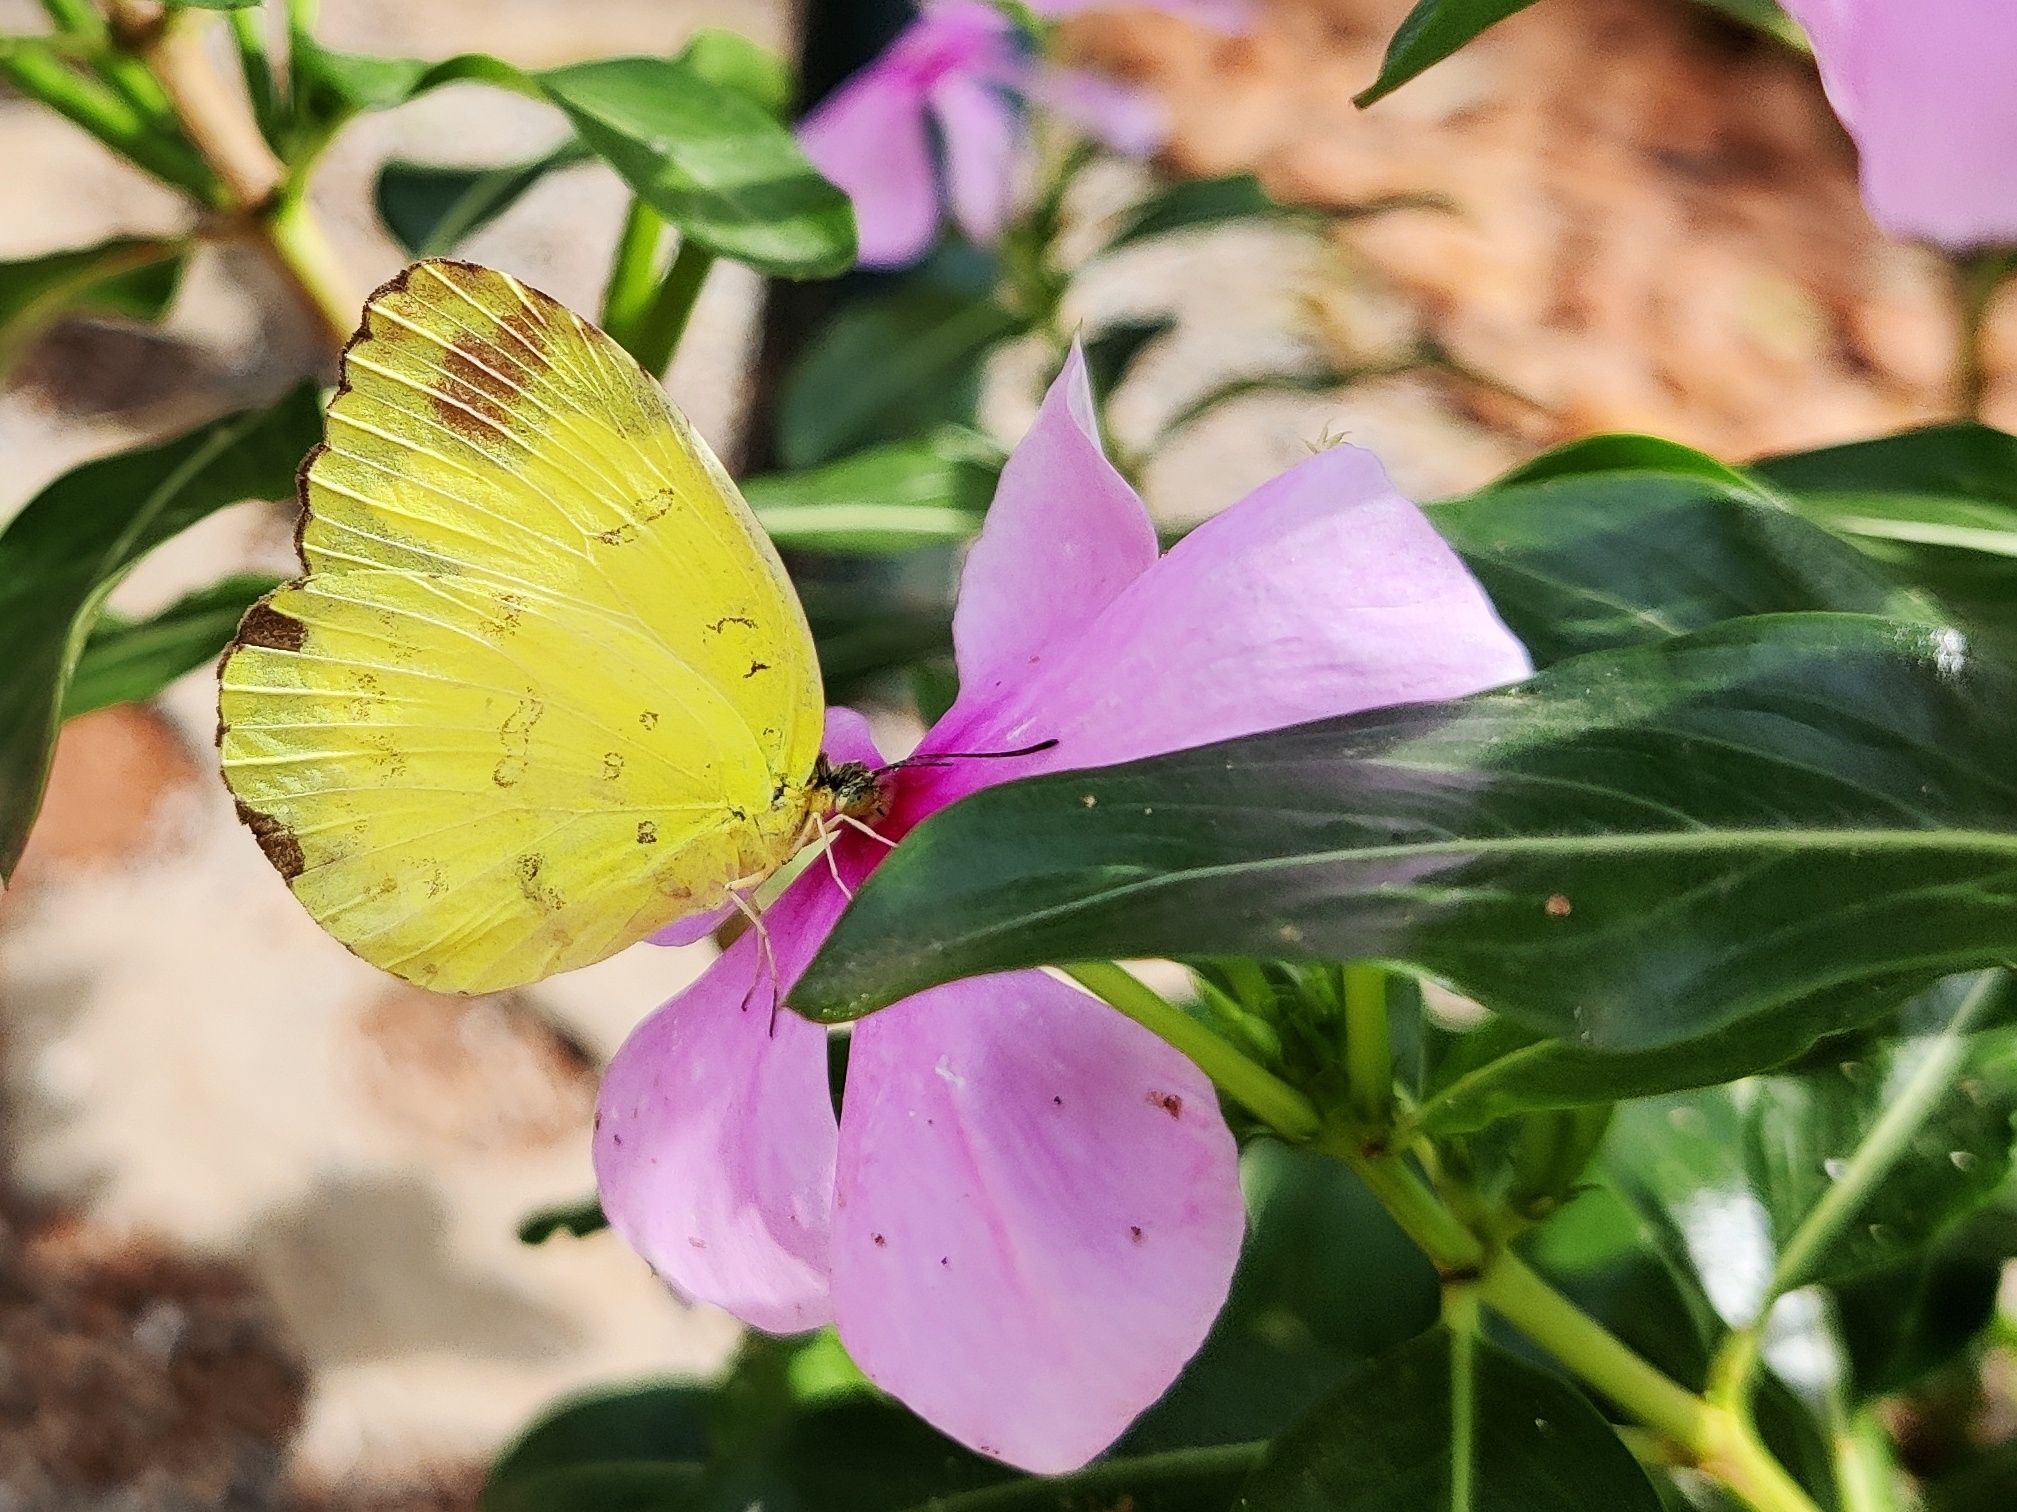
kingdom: Animalia
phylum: Arthropoda
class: Insecta
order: Lepidoptera
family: Pieridae
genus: Eurema
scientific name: Eurema blanda
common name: Three-spot grass yellow
